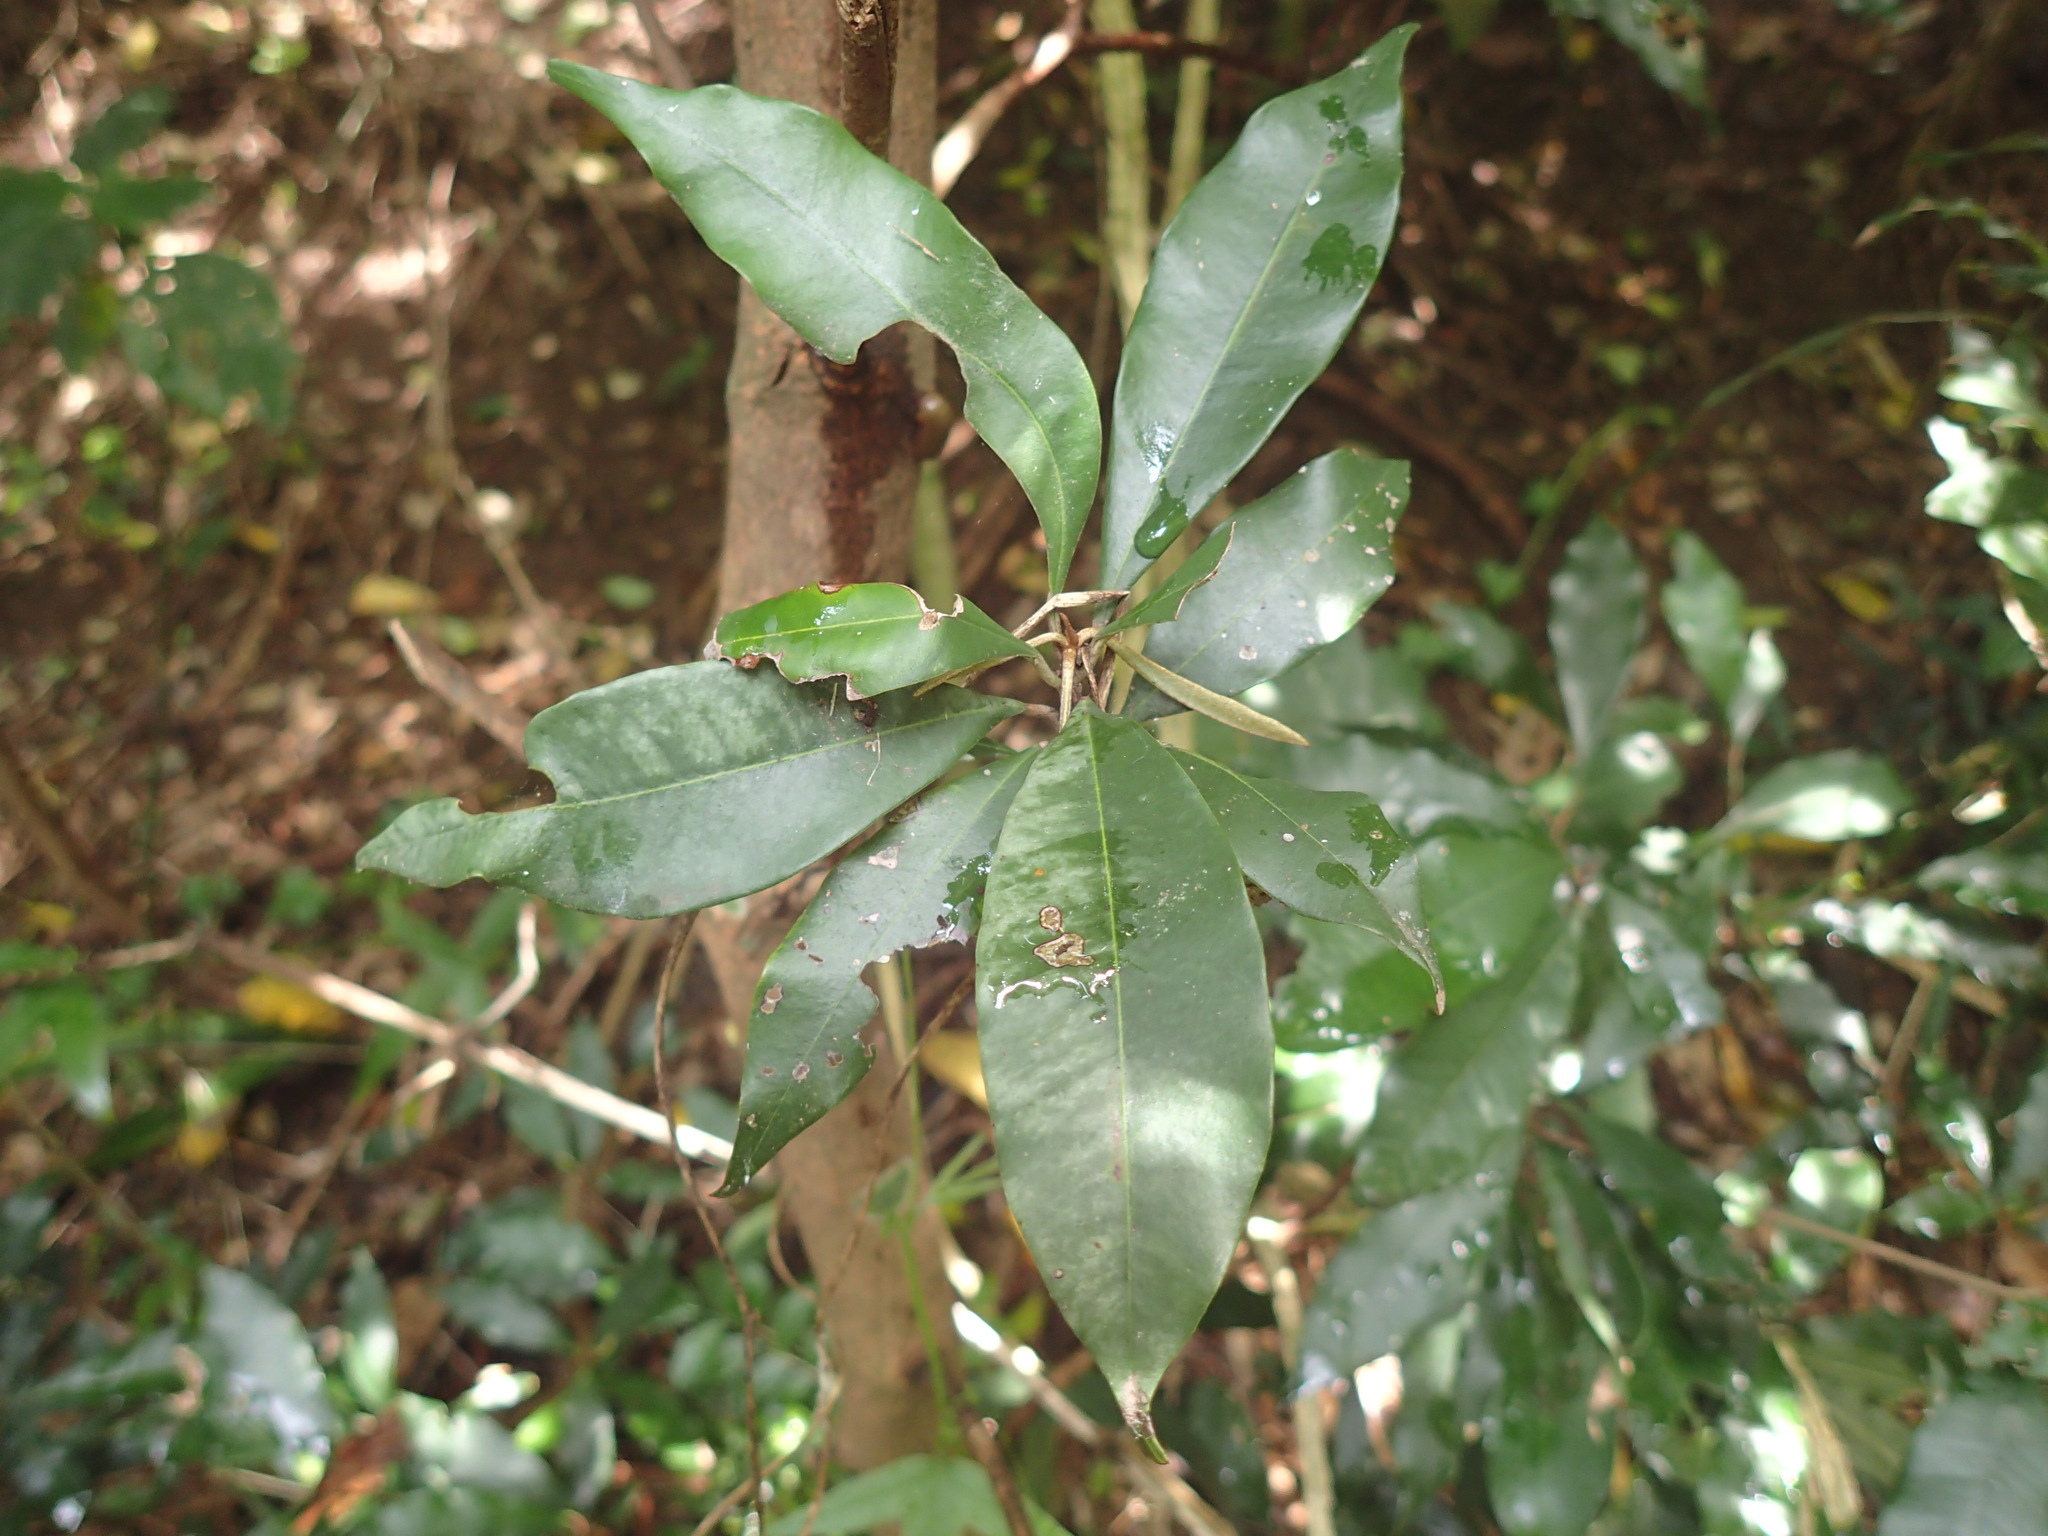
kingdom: Plantae
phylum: Tracheophyta
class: Magnoliopsida
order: Ericales
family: Sapotaceae
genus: Englerophytum
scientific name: Englerophytum natalense
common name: Silver-leaved milkplum
